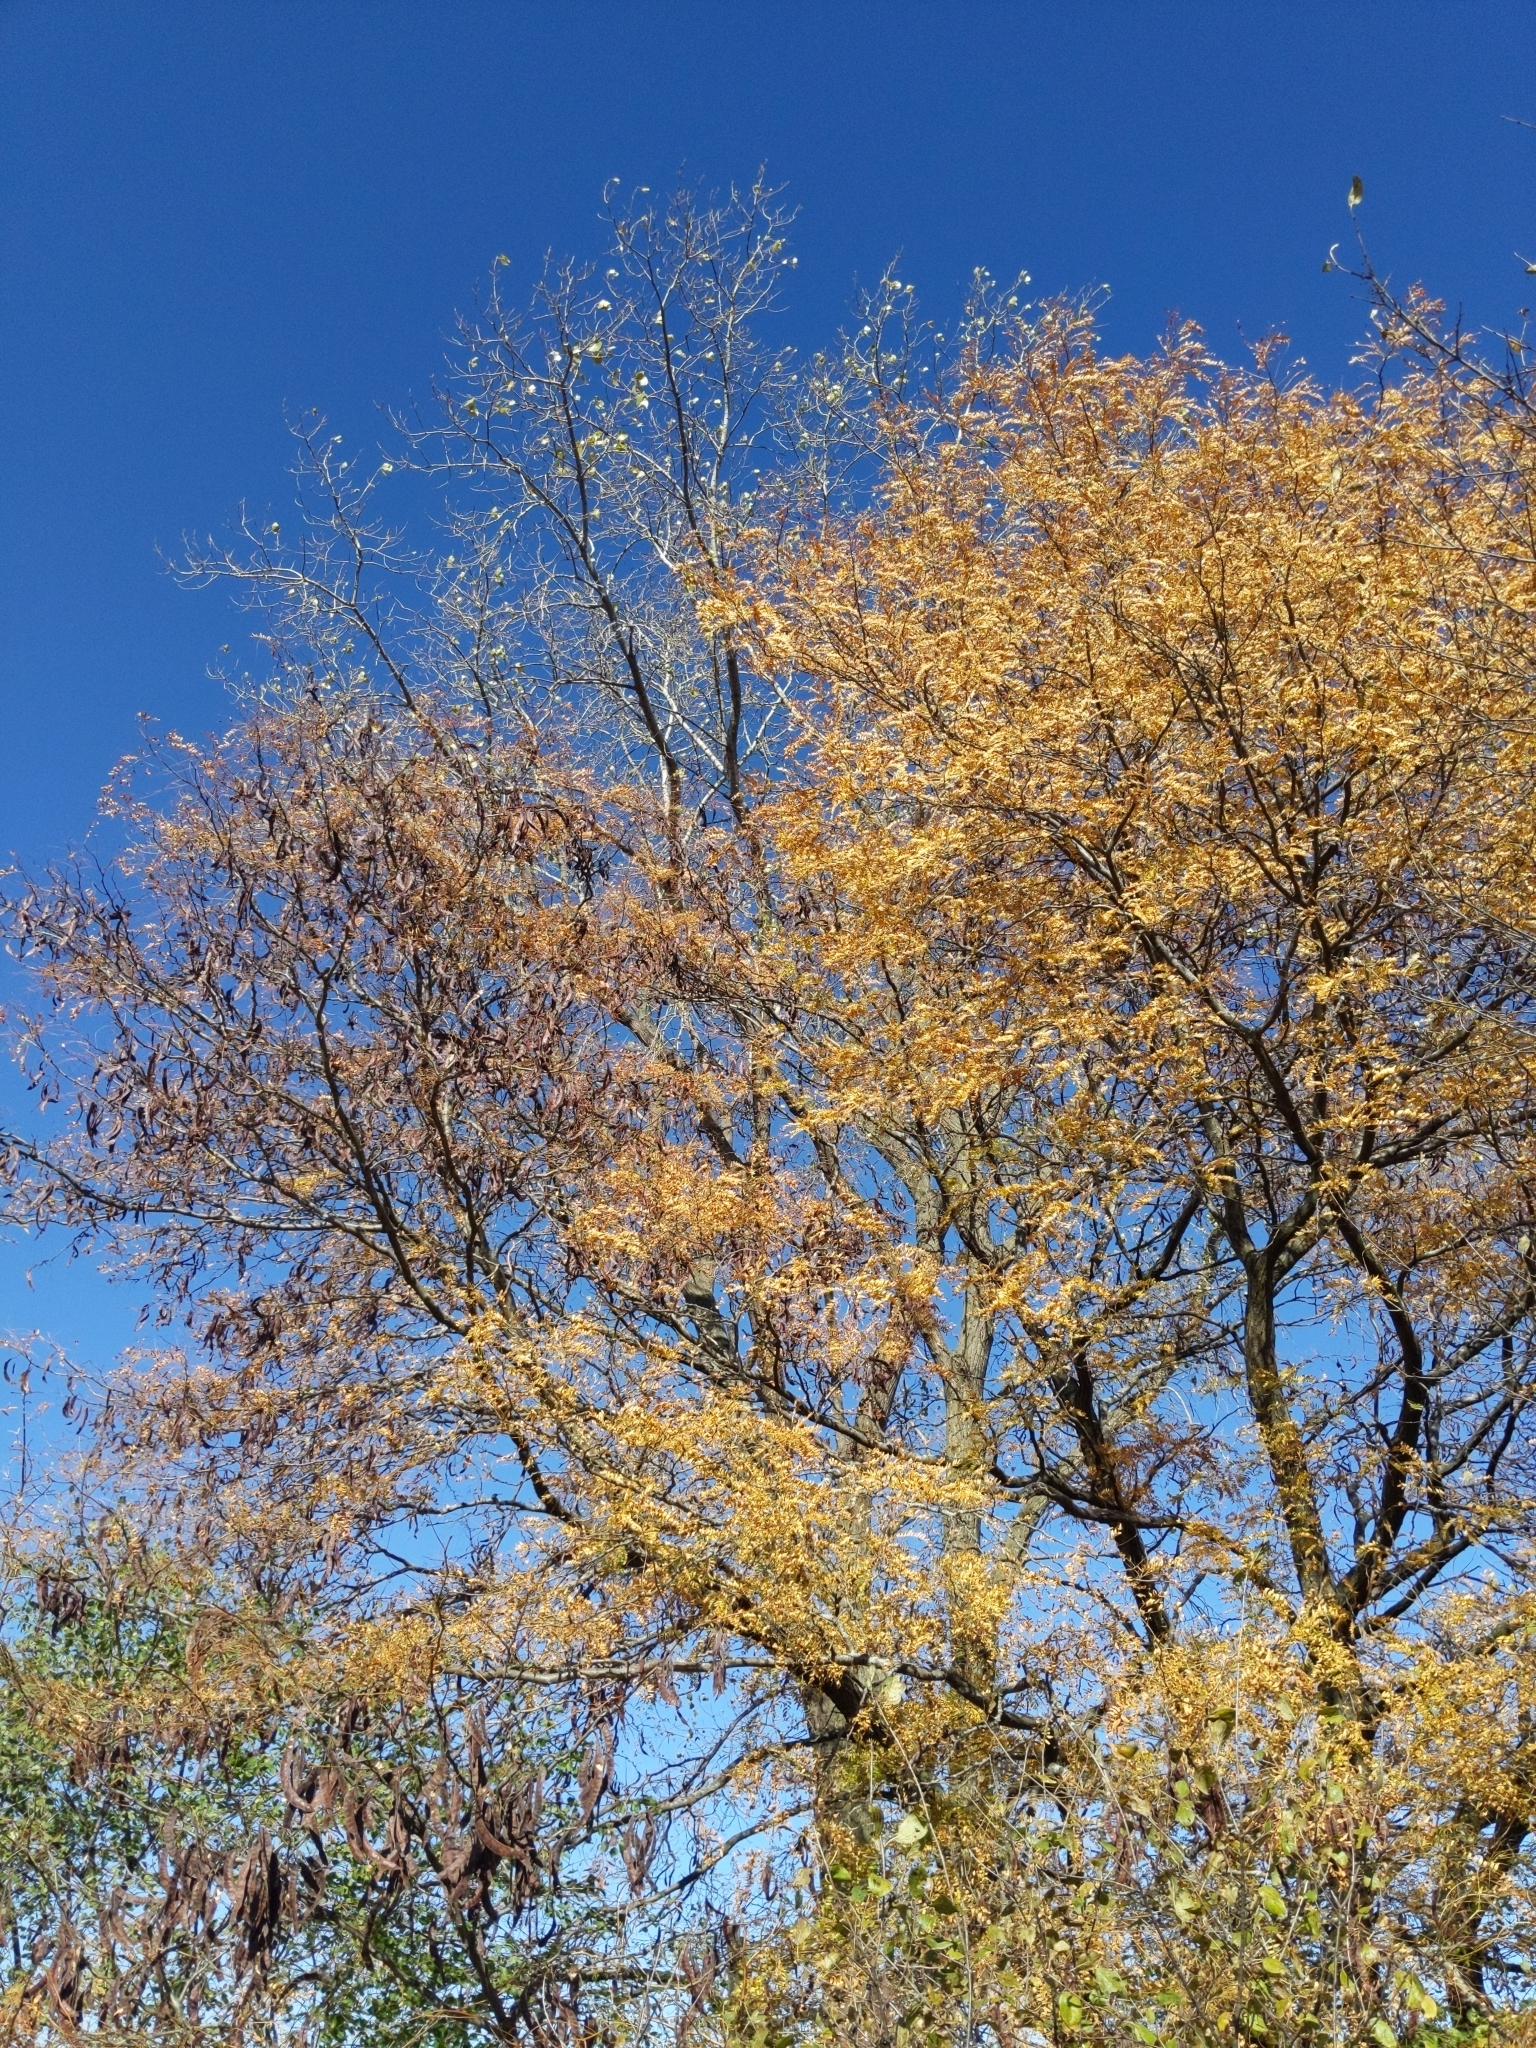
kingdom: Plantae
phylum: Tracheophyta
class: Magnoliopsida
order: Fabales
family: Fabaceae
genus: Gleditsia
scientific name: Gleditsia triacanthos
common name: Common honeylocust
